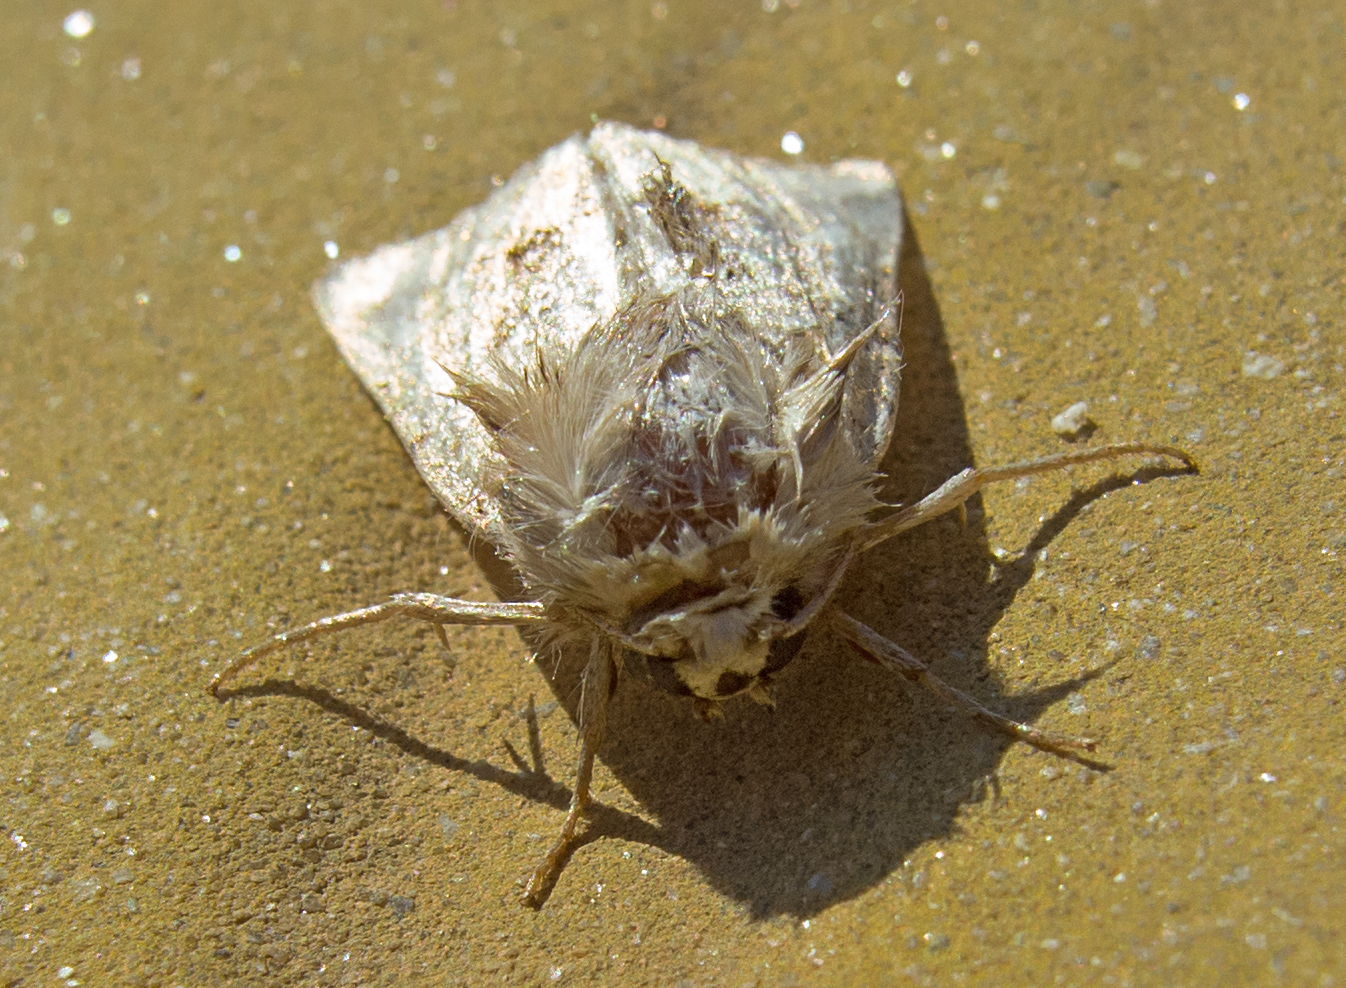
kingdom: Animalia
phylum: Arthropoda
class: Insecta
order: Lepidoptera
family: Noctuidae
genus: Luperina
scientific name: Luperina dumerilii
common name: Dumeril's rustic
